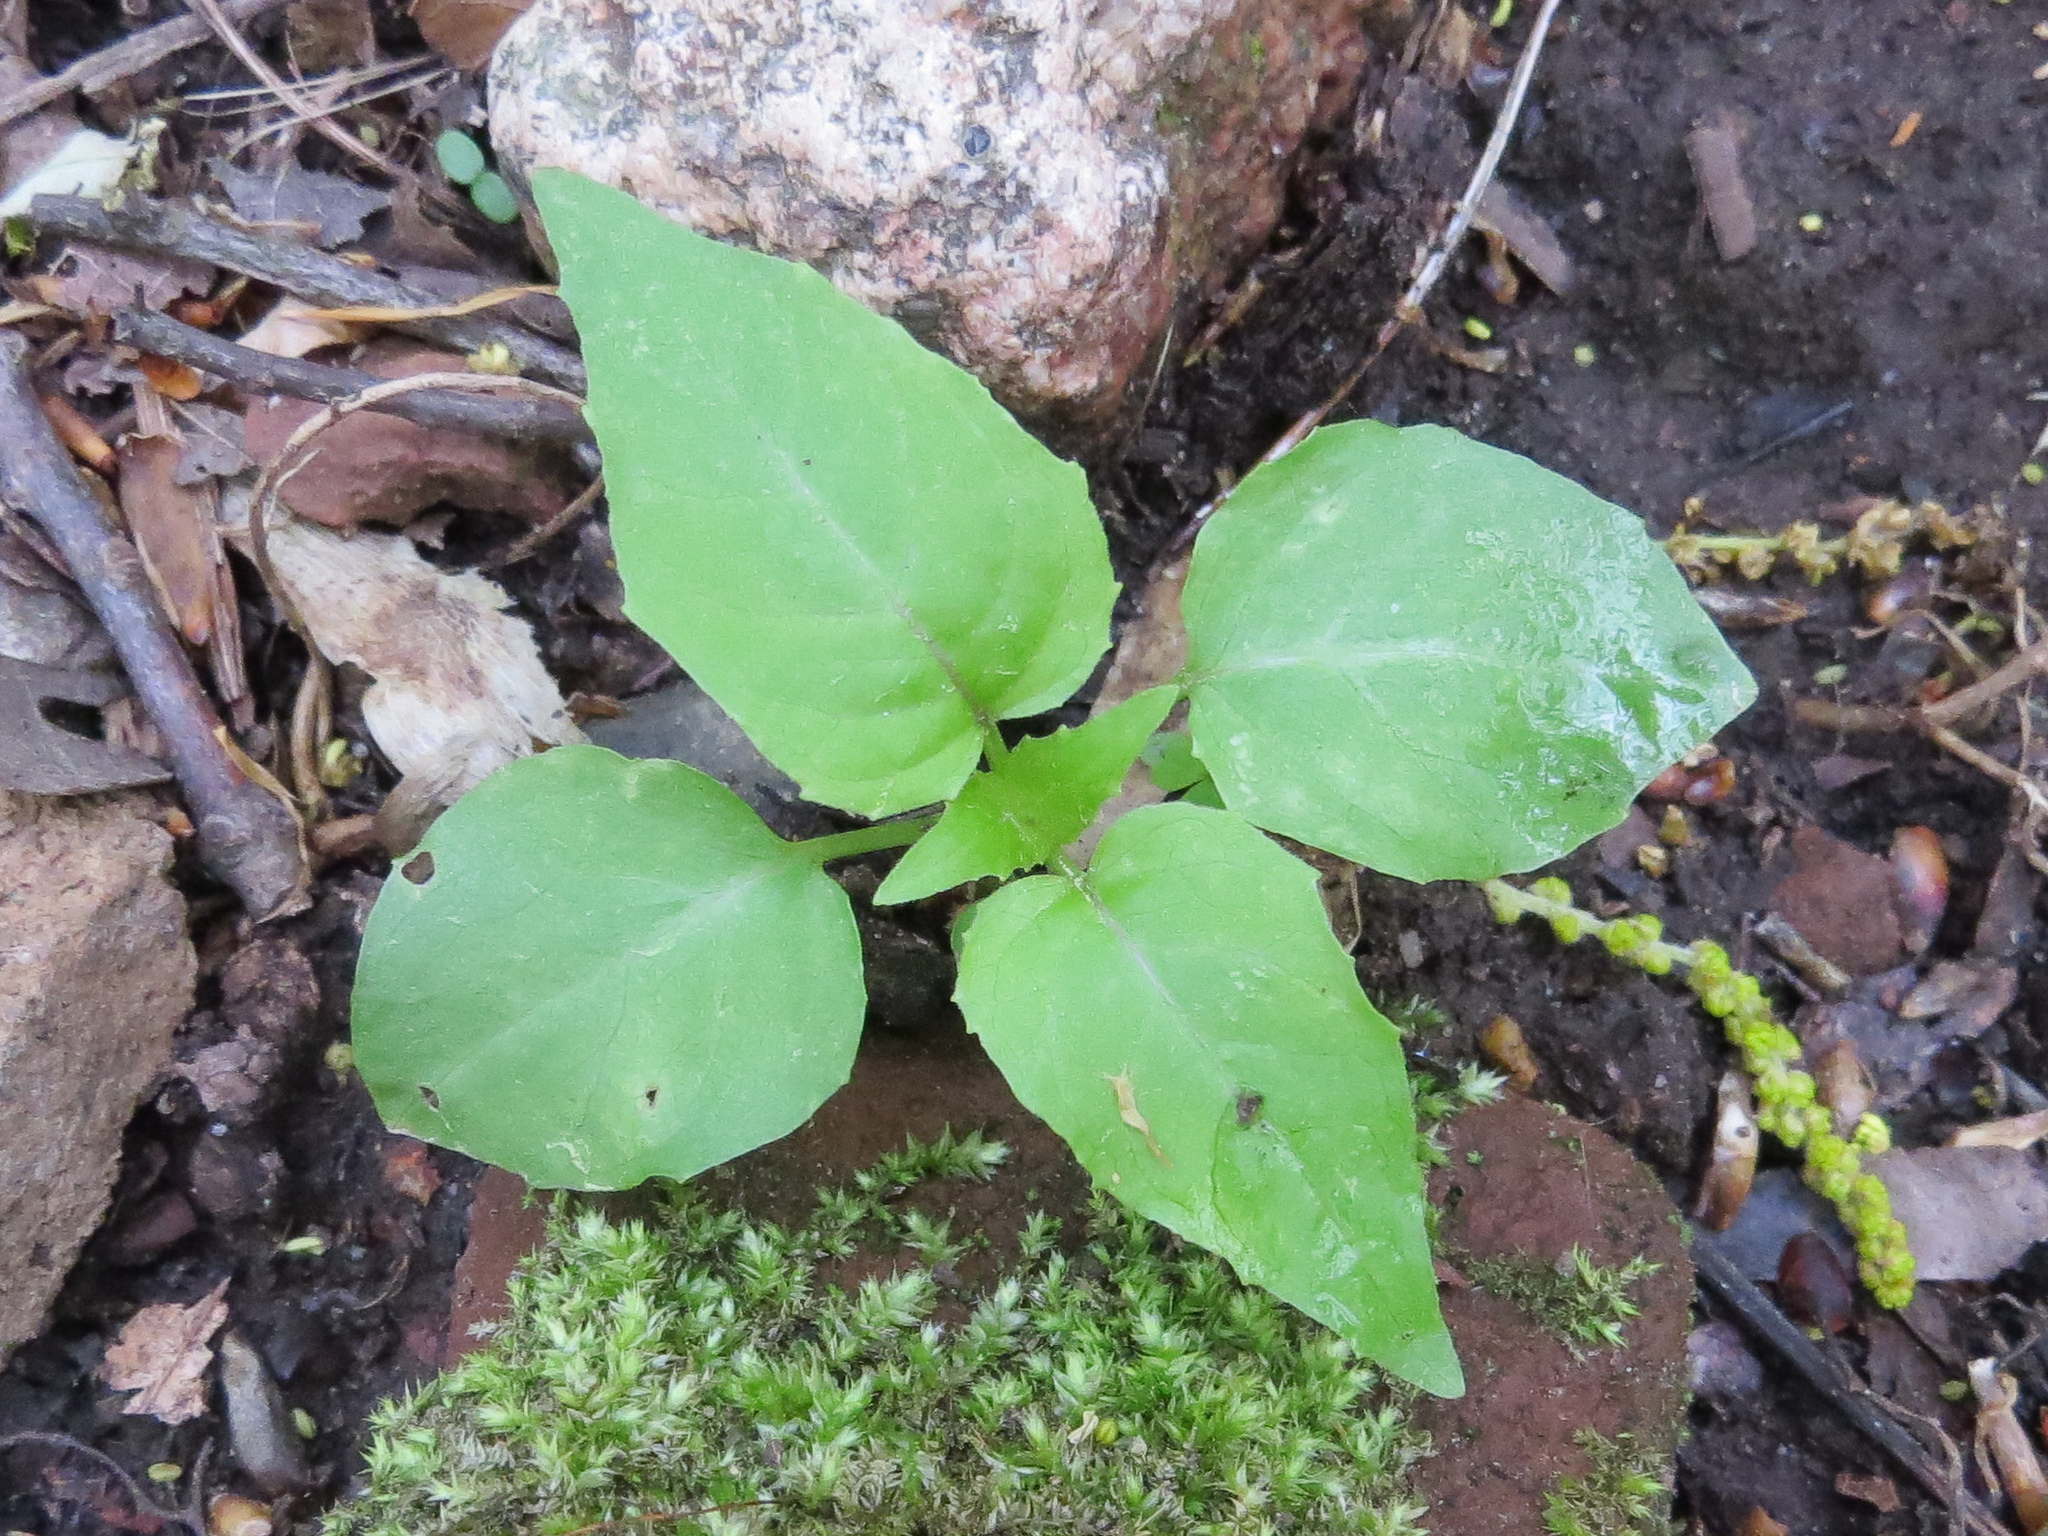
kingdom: Plantae
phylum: Tracheophyta
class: Magnoliopsida
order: Myrtales
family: Onagraceae
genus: Circaea
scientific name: Circaea canadensis
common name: Broad-leaved enchanter's nightshade
